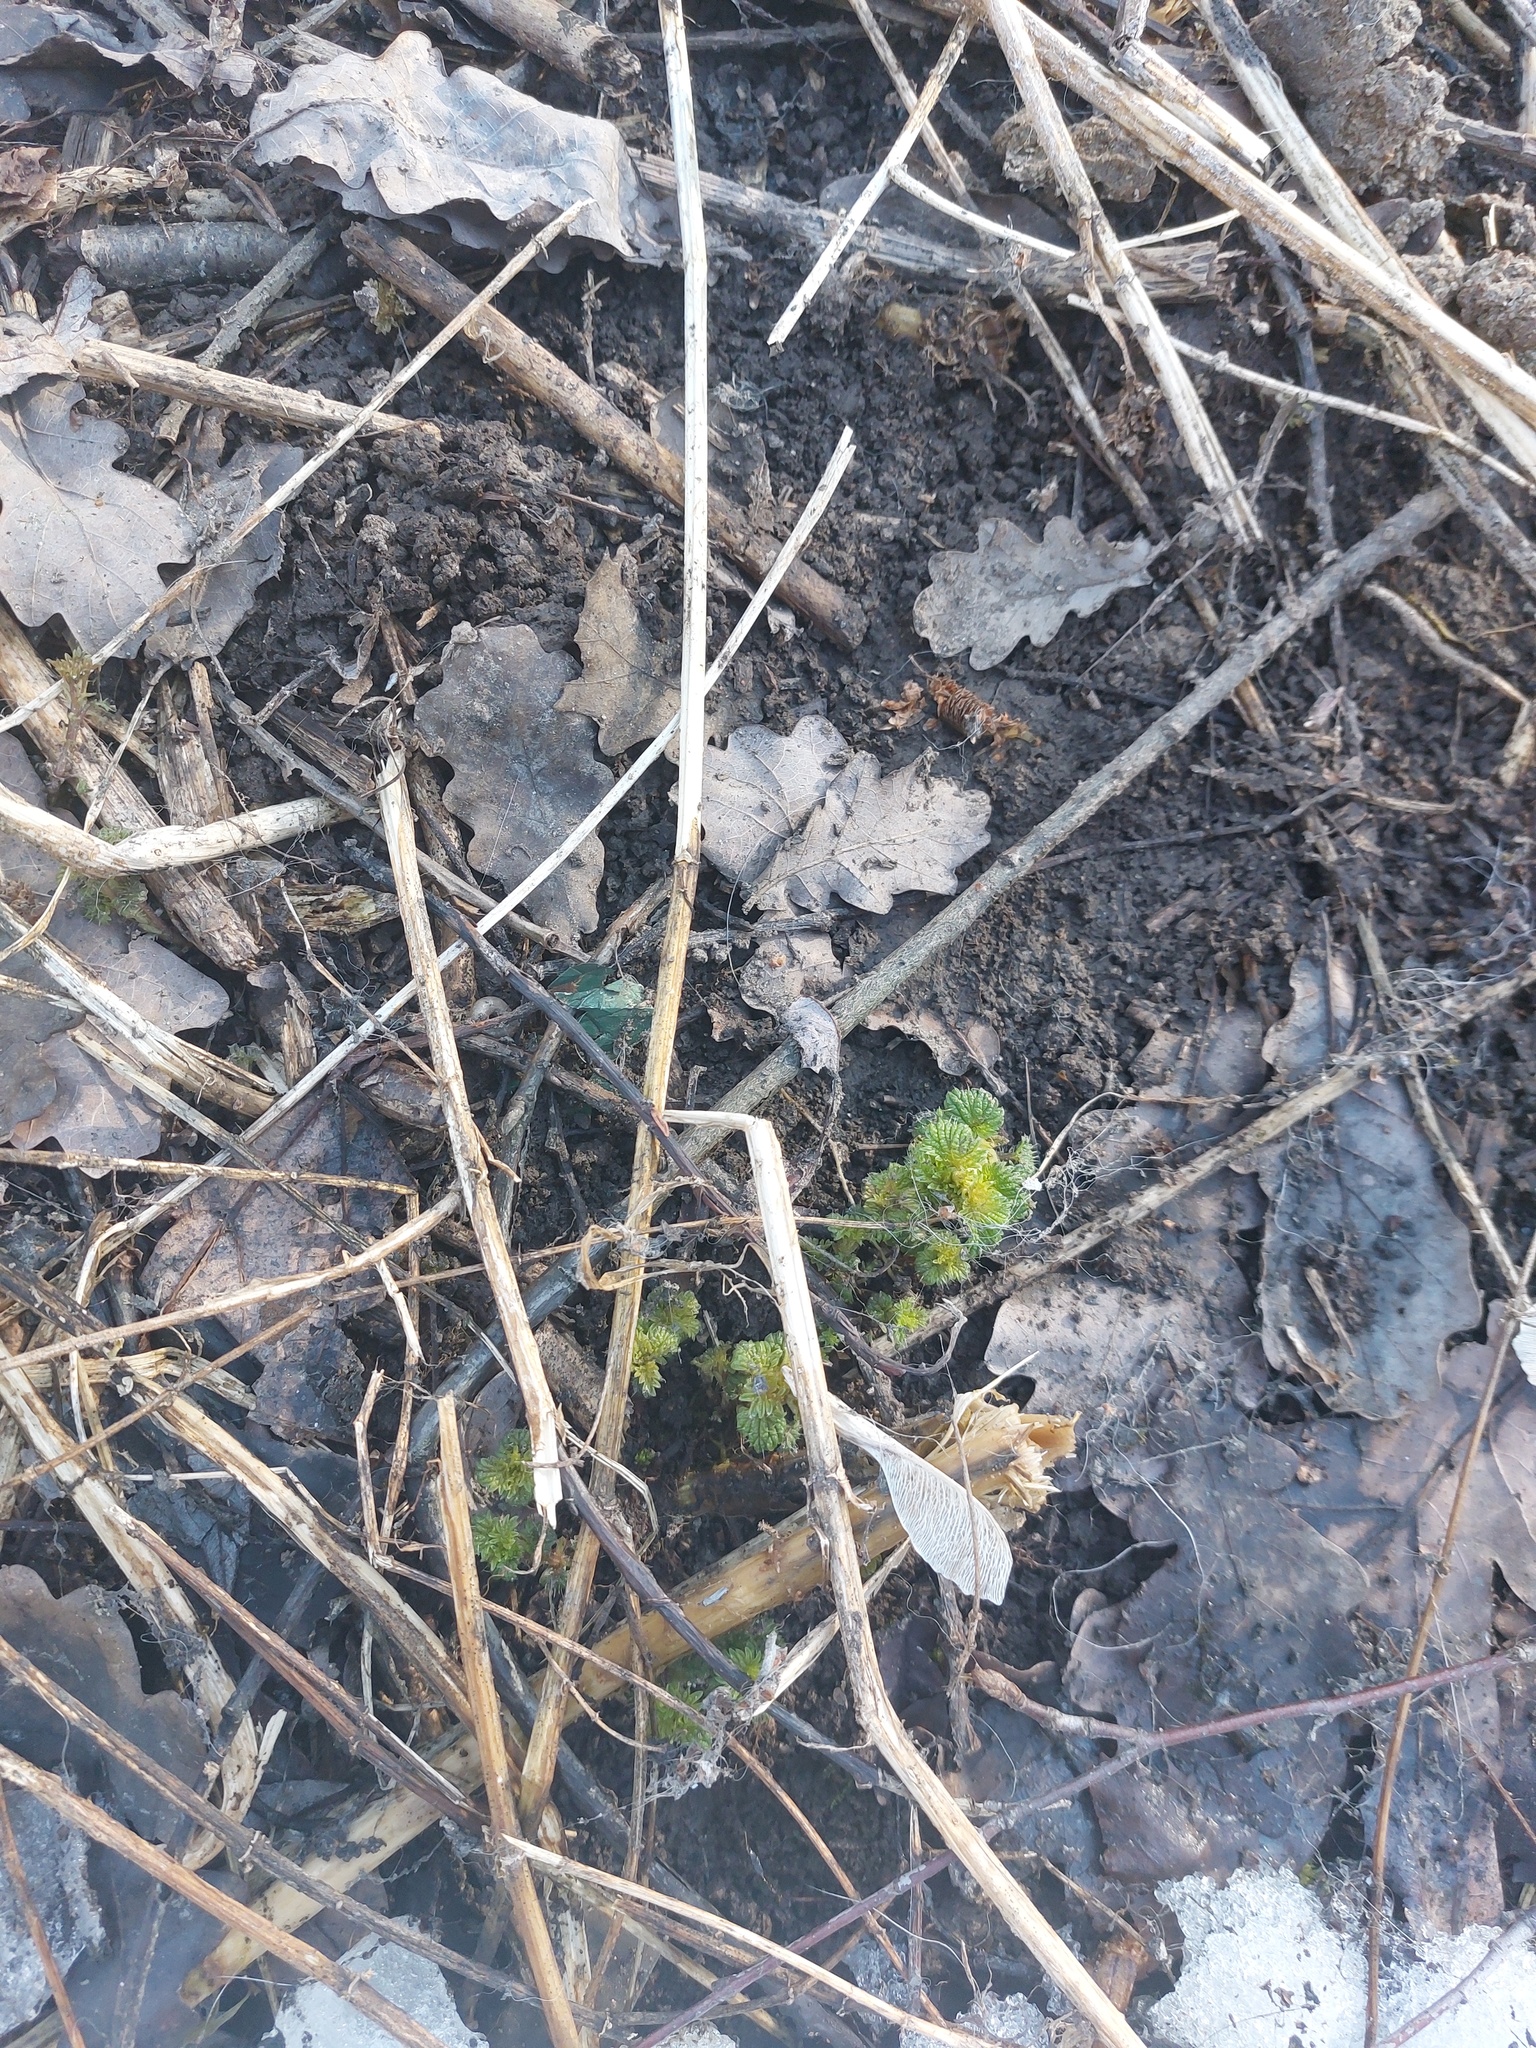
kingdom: Plantae
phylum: Tracheophyta
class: Magnoliopsida
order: Rosales
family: Urticaceae
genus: Urtica
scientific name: Urtica dioica
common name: Common nettle
